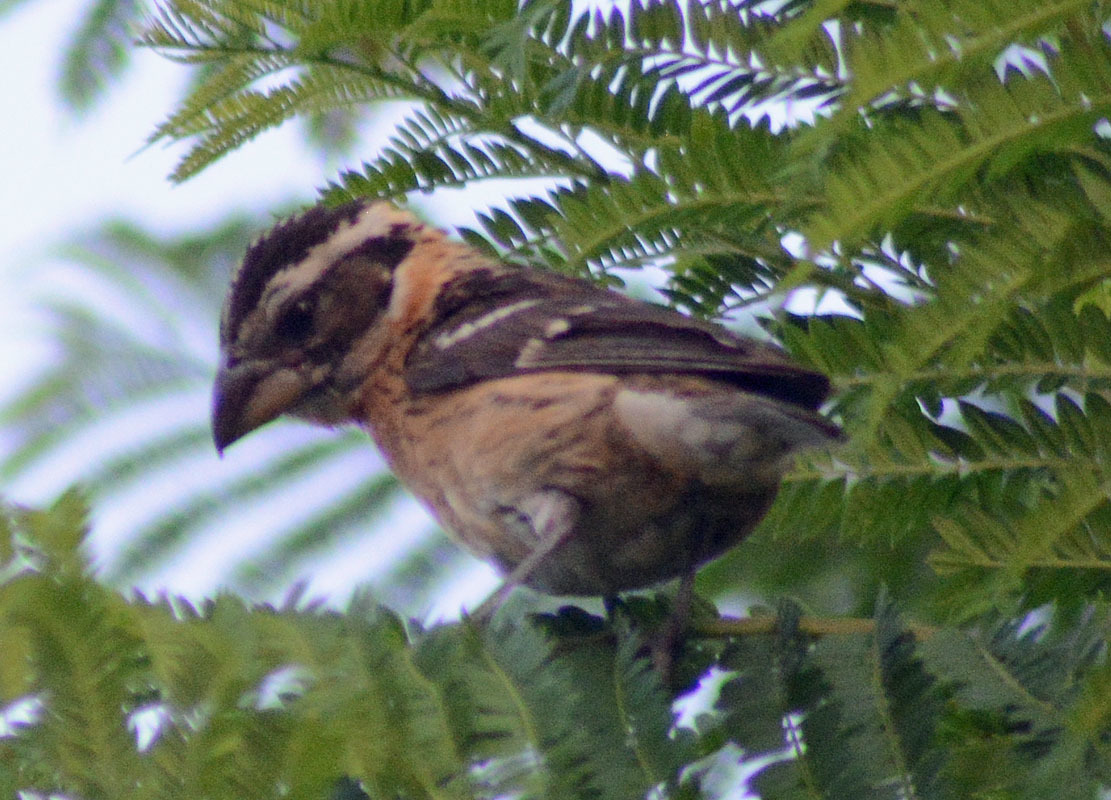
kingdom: Animalia
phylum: Chordata
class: Aves
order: Passeriformes
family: Cardinalidae
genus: Pheucticus
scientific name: Pheucticus melanocephalus
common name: Black-headed grosbeak
